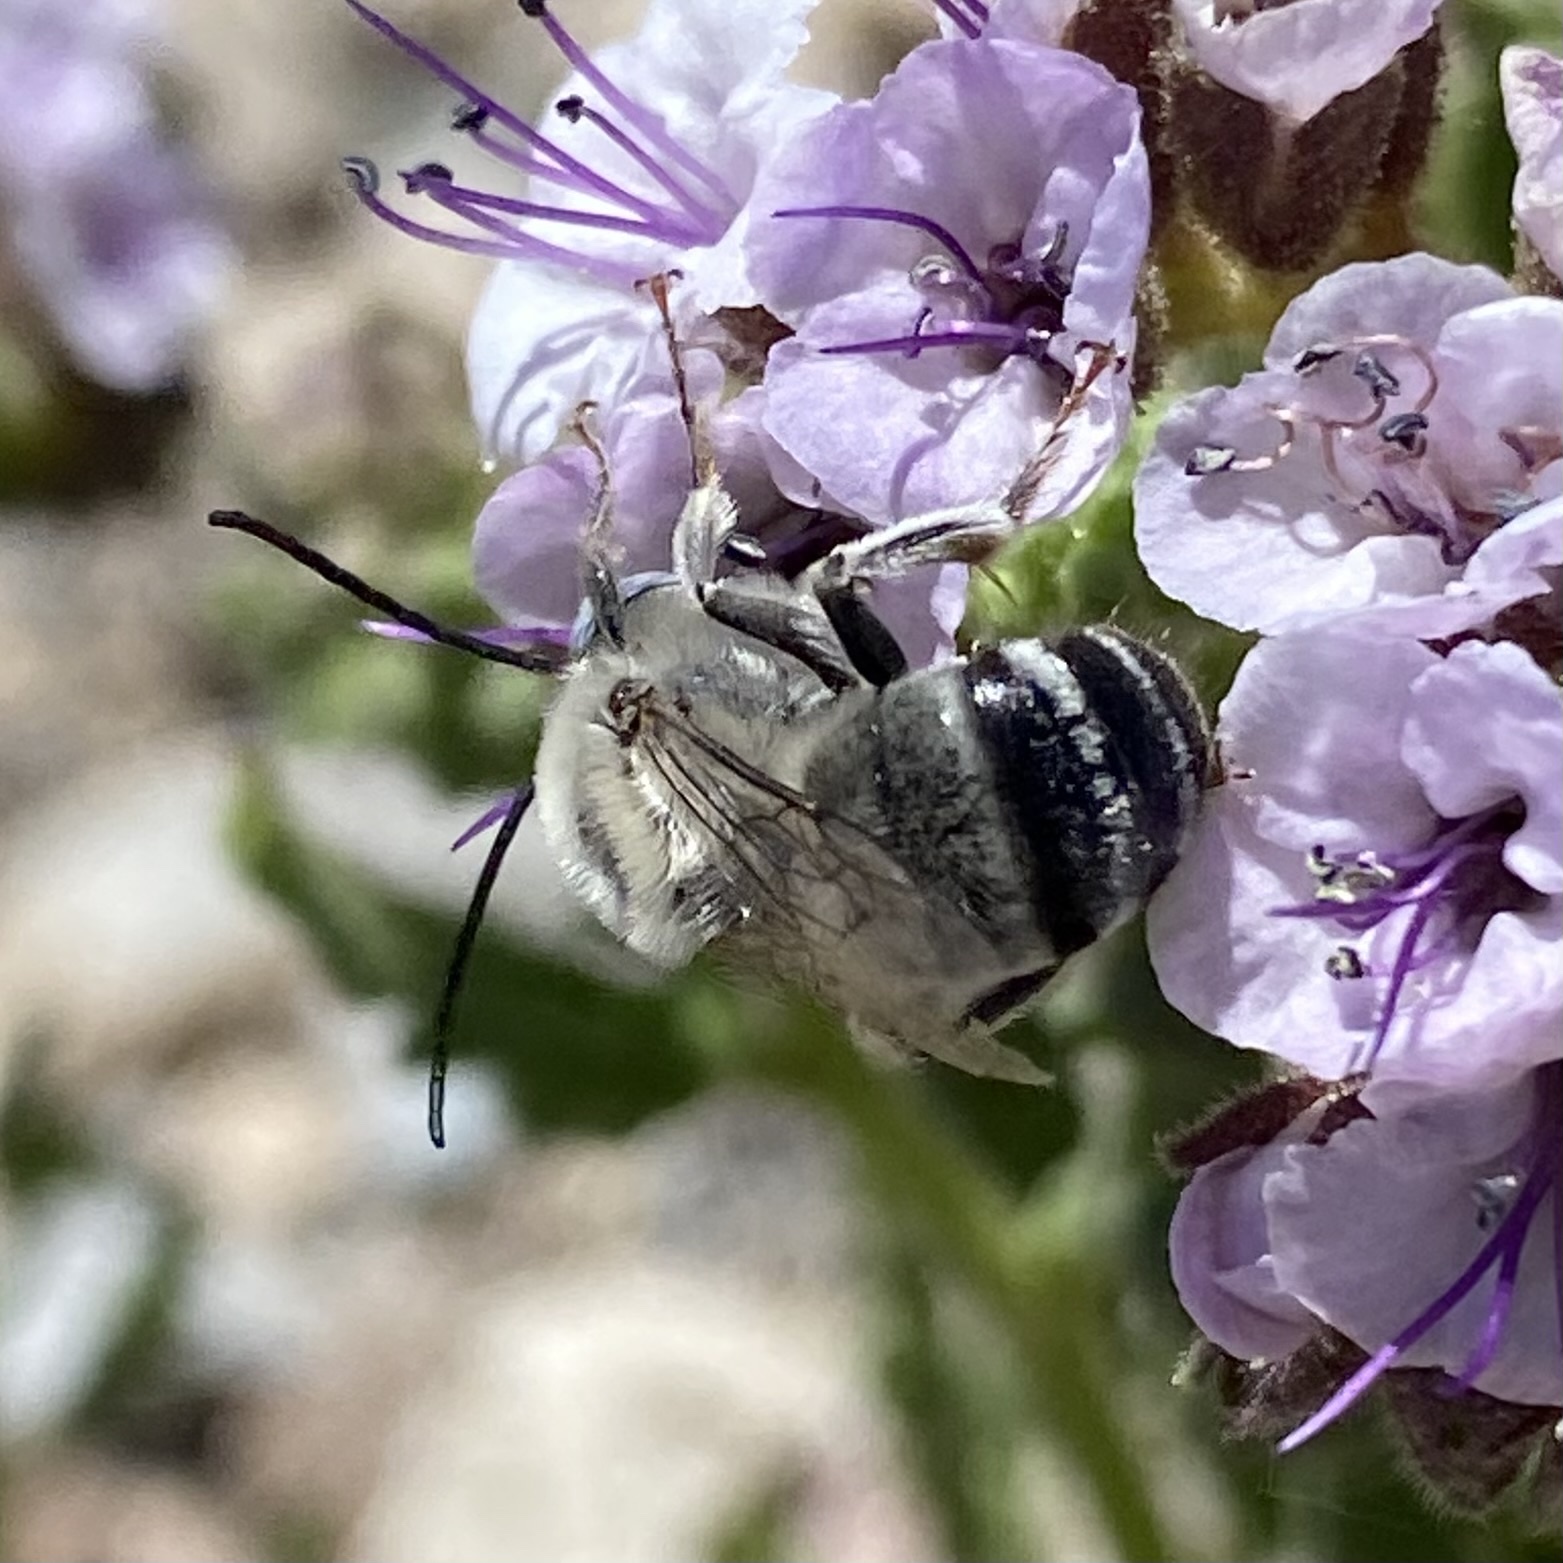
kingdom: Animalia
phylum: Arthropoda
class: Insecta
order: Hymenoptera
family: Apidae
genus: Synhalonia
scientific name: Synhalonia
